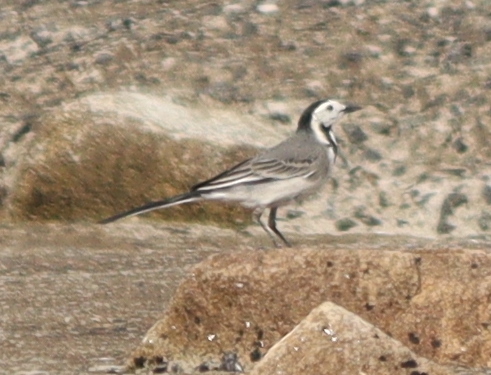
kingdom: Animalia
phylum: Chordata
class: Aves
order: Passeriformes
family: Motacillidae
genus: Motacilla
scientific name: Motacilla alba
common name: White wagtail
